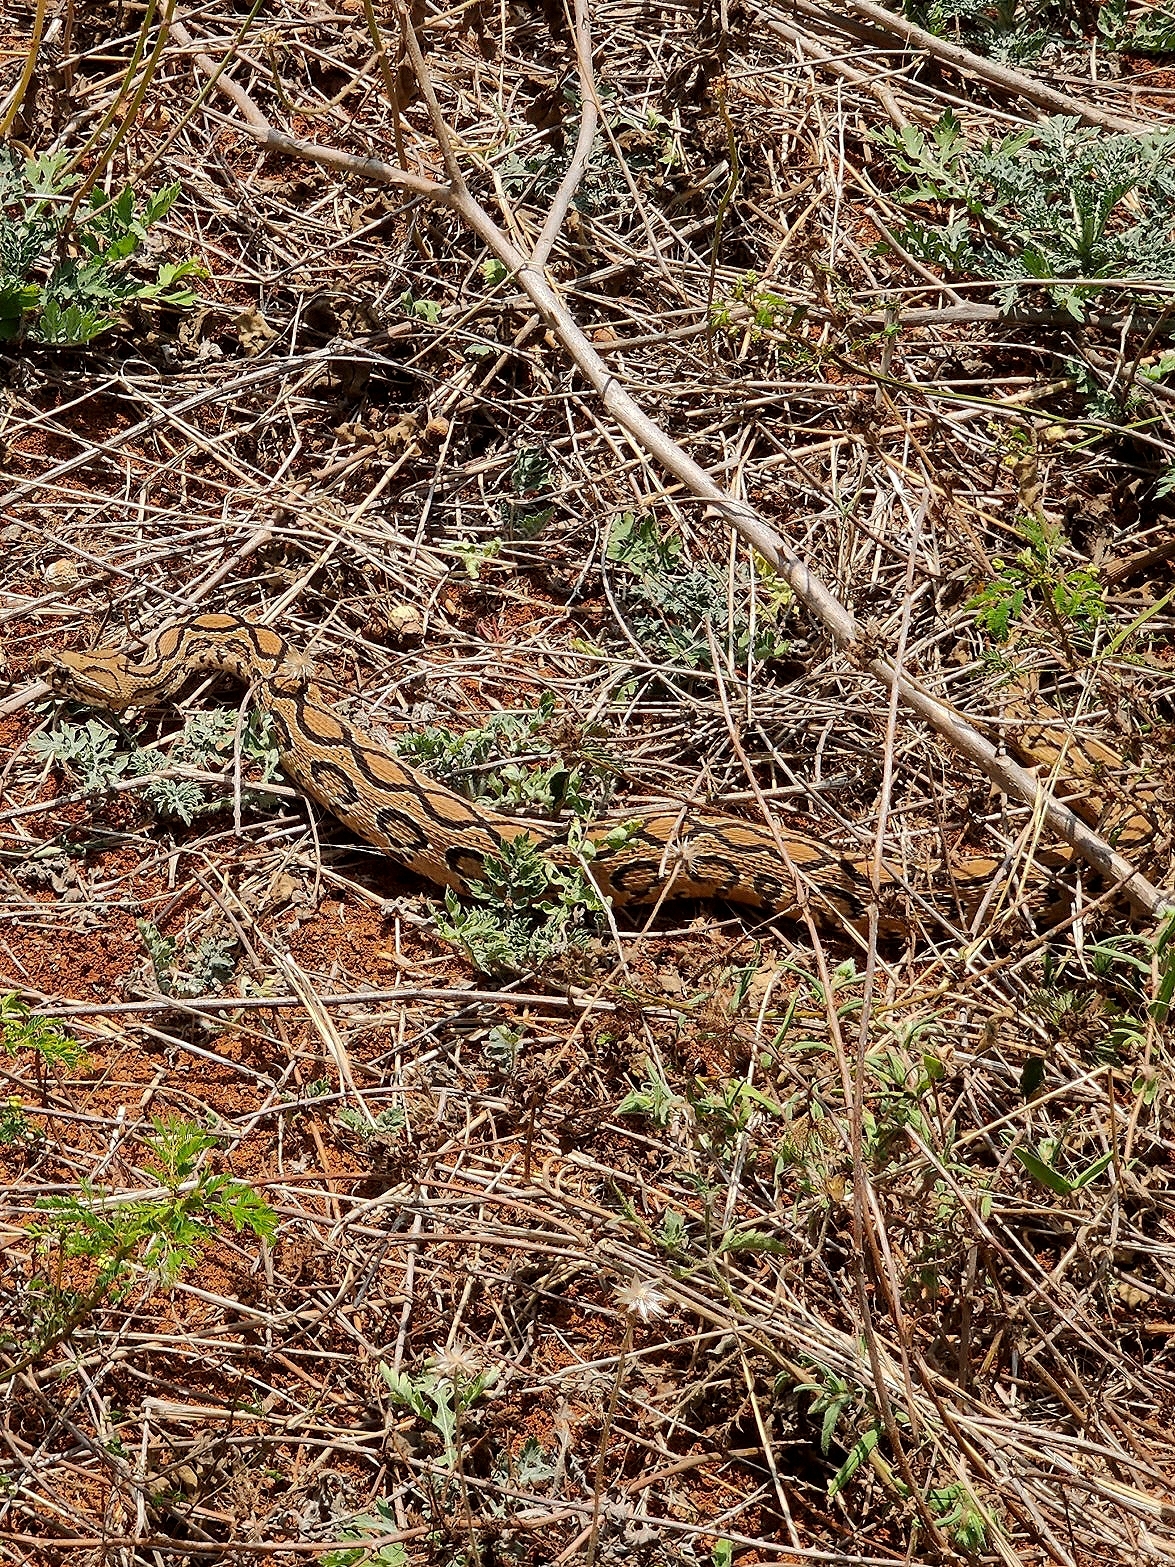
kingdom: Animalia
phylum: Chordata
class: Squamata
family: Viperidae
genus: Daboia
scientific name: Daboia russelii
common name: Western russel’s viper
